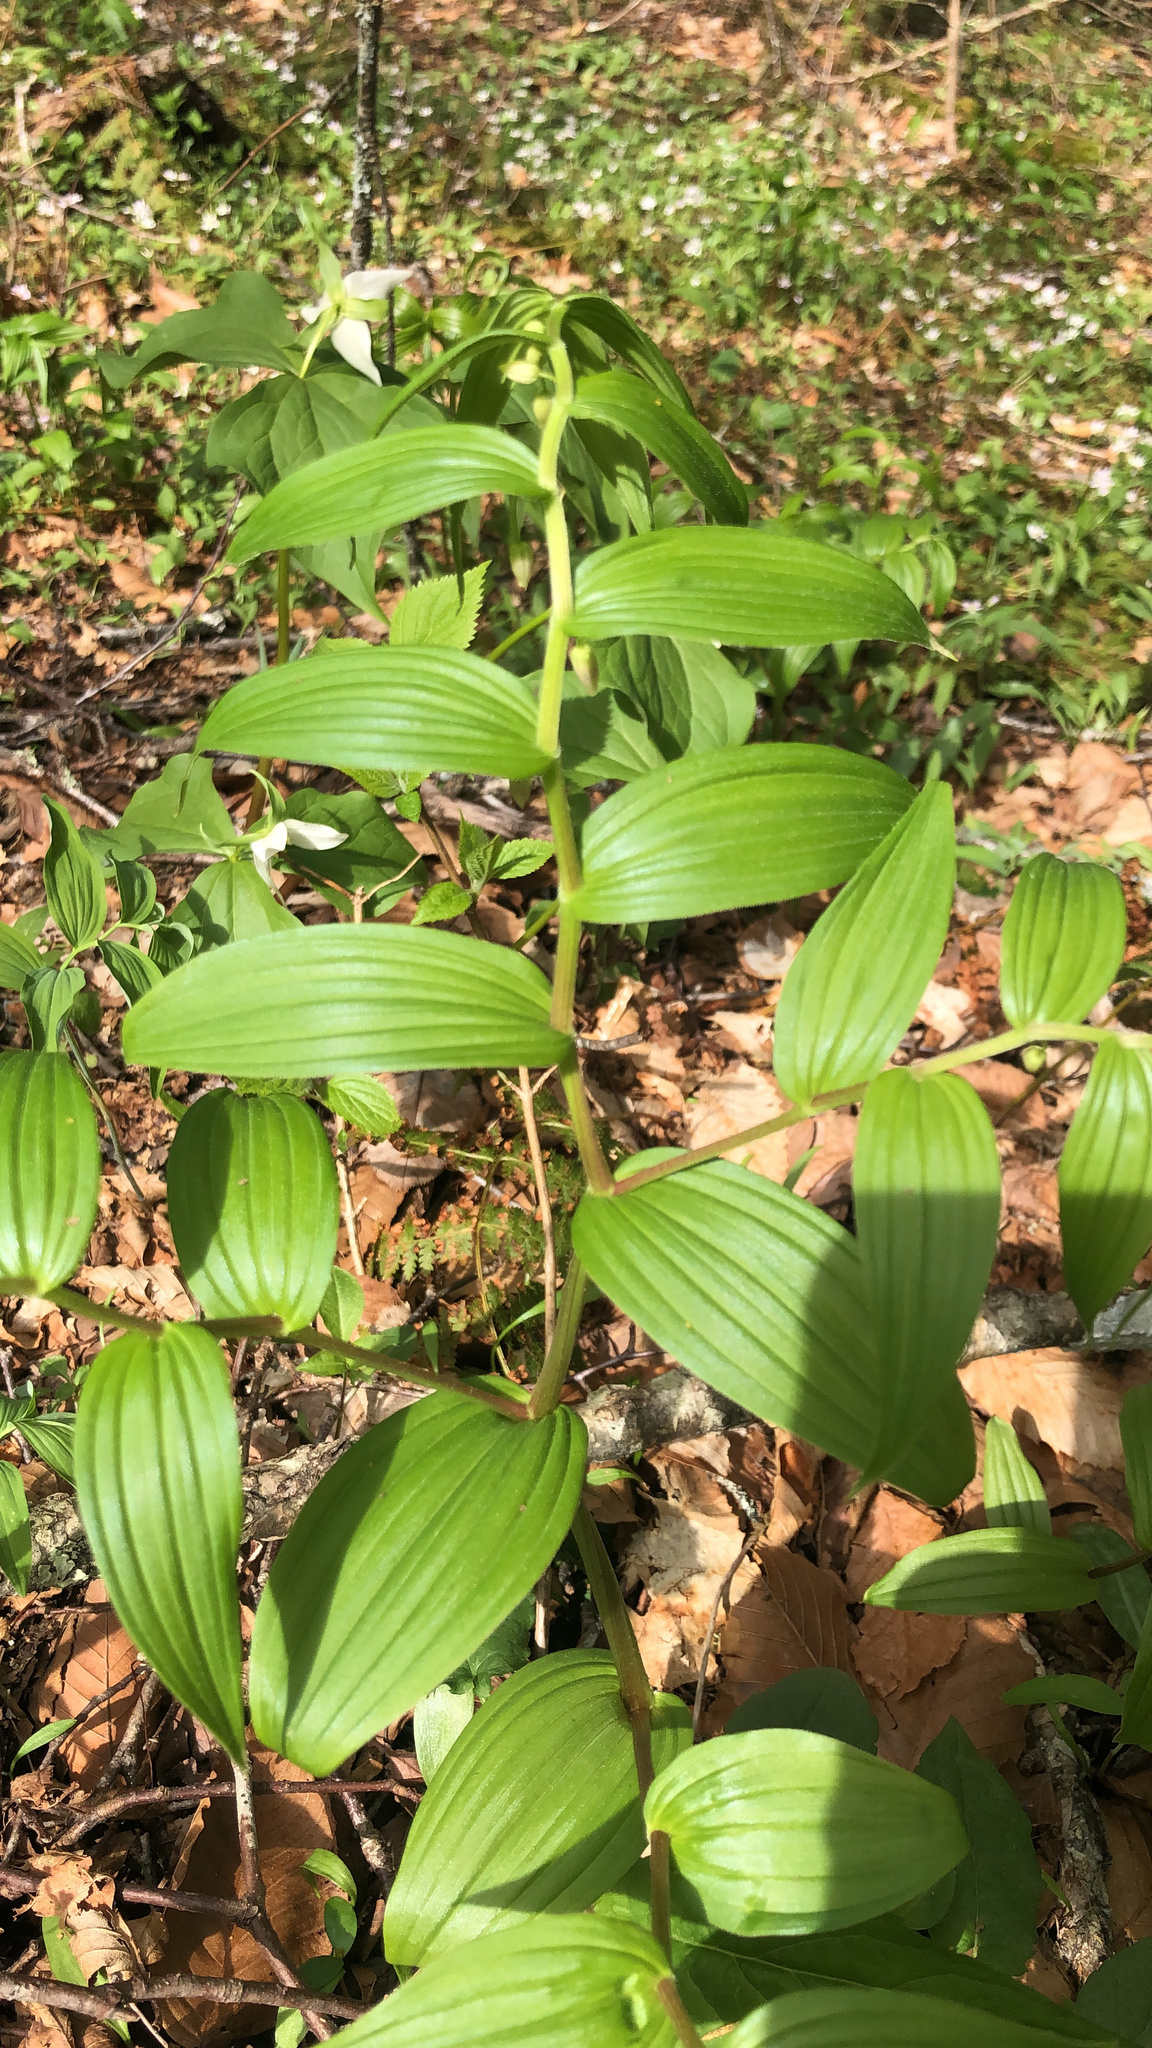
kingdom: Plantae
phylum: Tracheophyta
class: Liliopsida
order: Liliales
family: Liliaceae
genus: Streptopus
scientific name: Streptopus lanceolatus
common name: Rose mandarin
